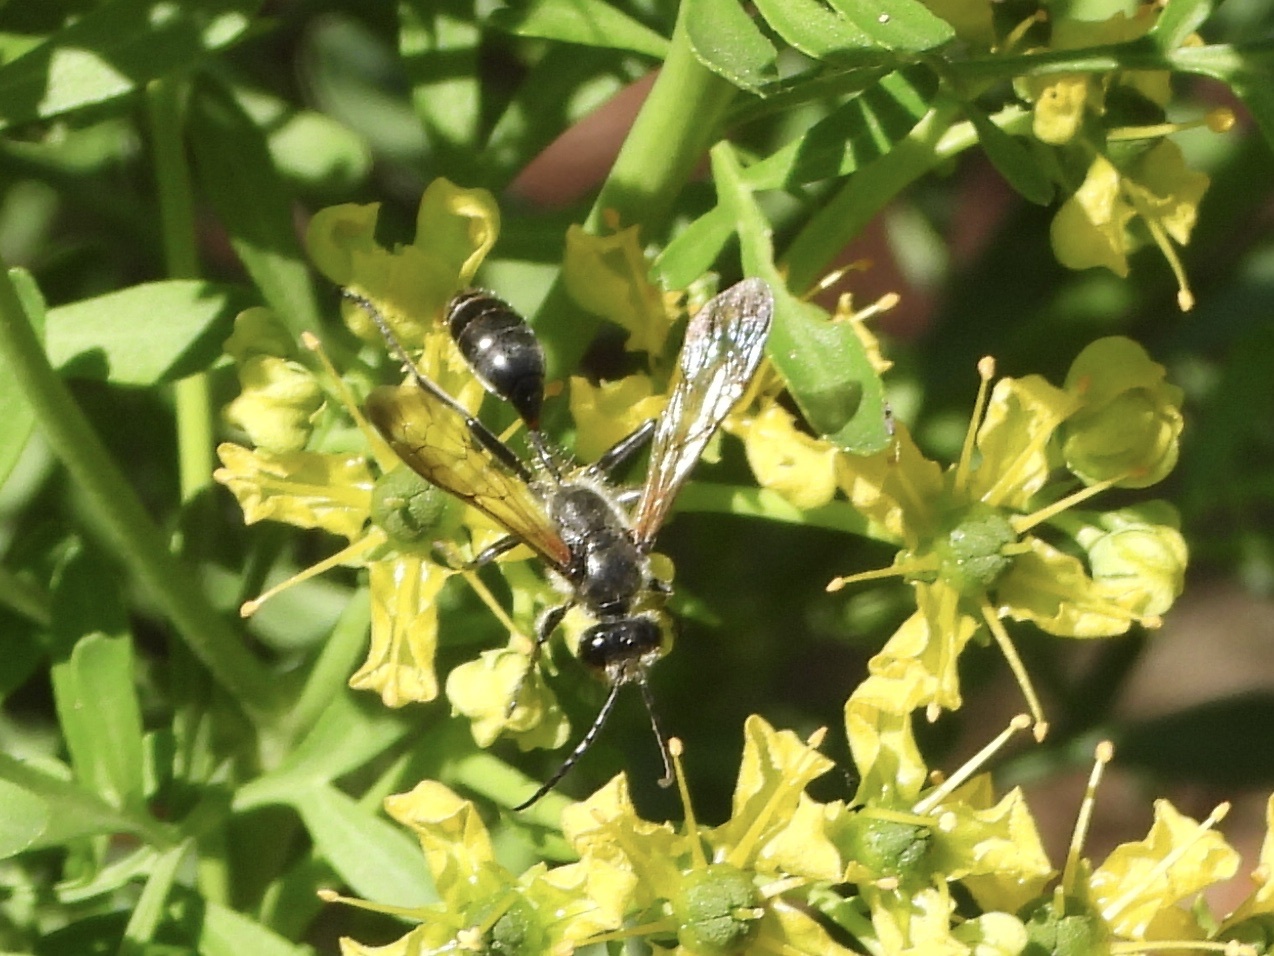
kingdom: Animalia
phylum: Arthropoda
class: Insecta
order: Hymenoptera
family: Sphecidae
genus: Isodontia
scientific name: Isodontia mexicana
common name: Mud dauber
